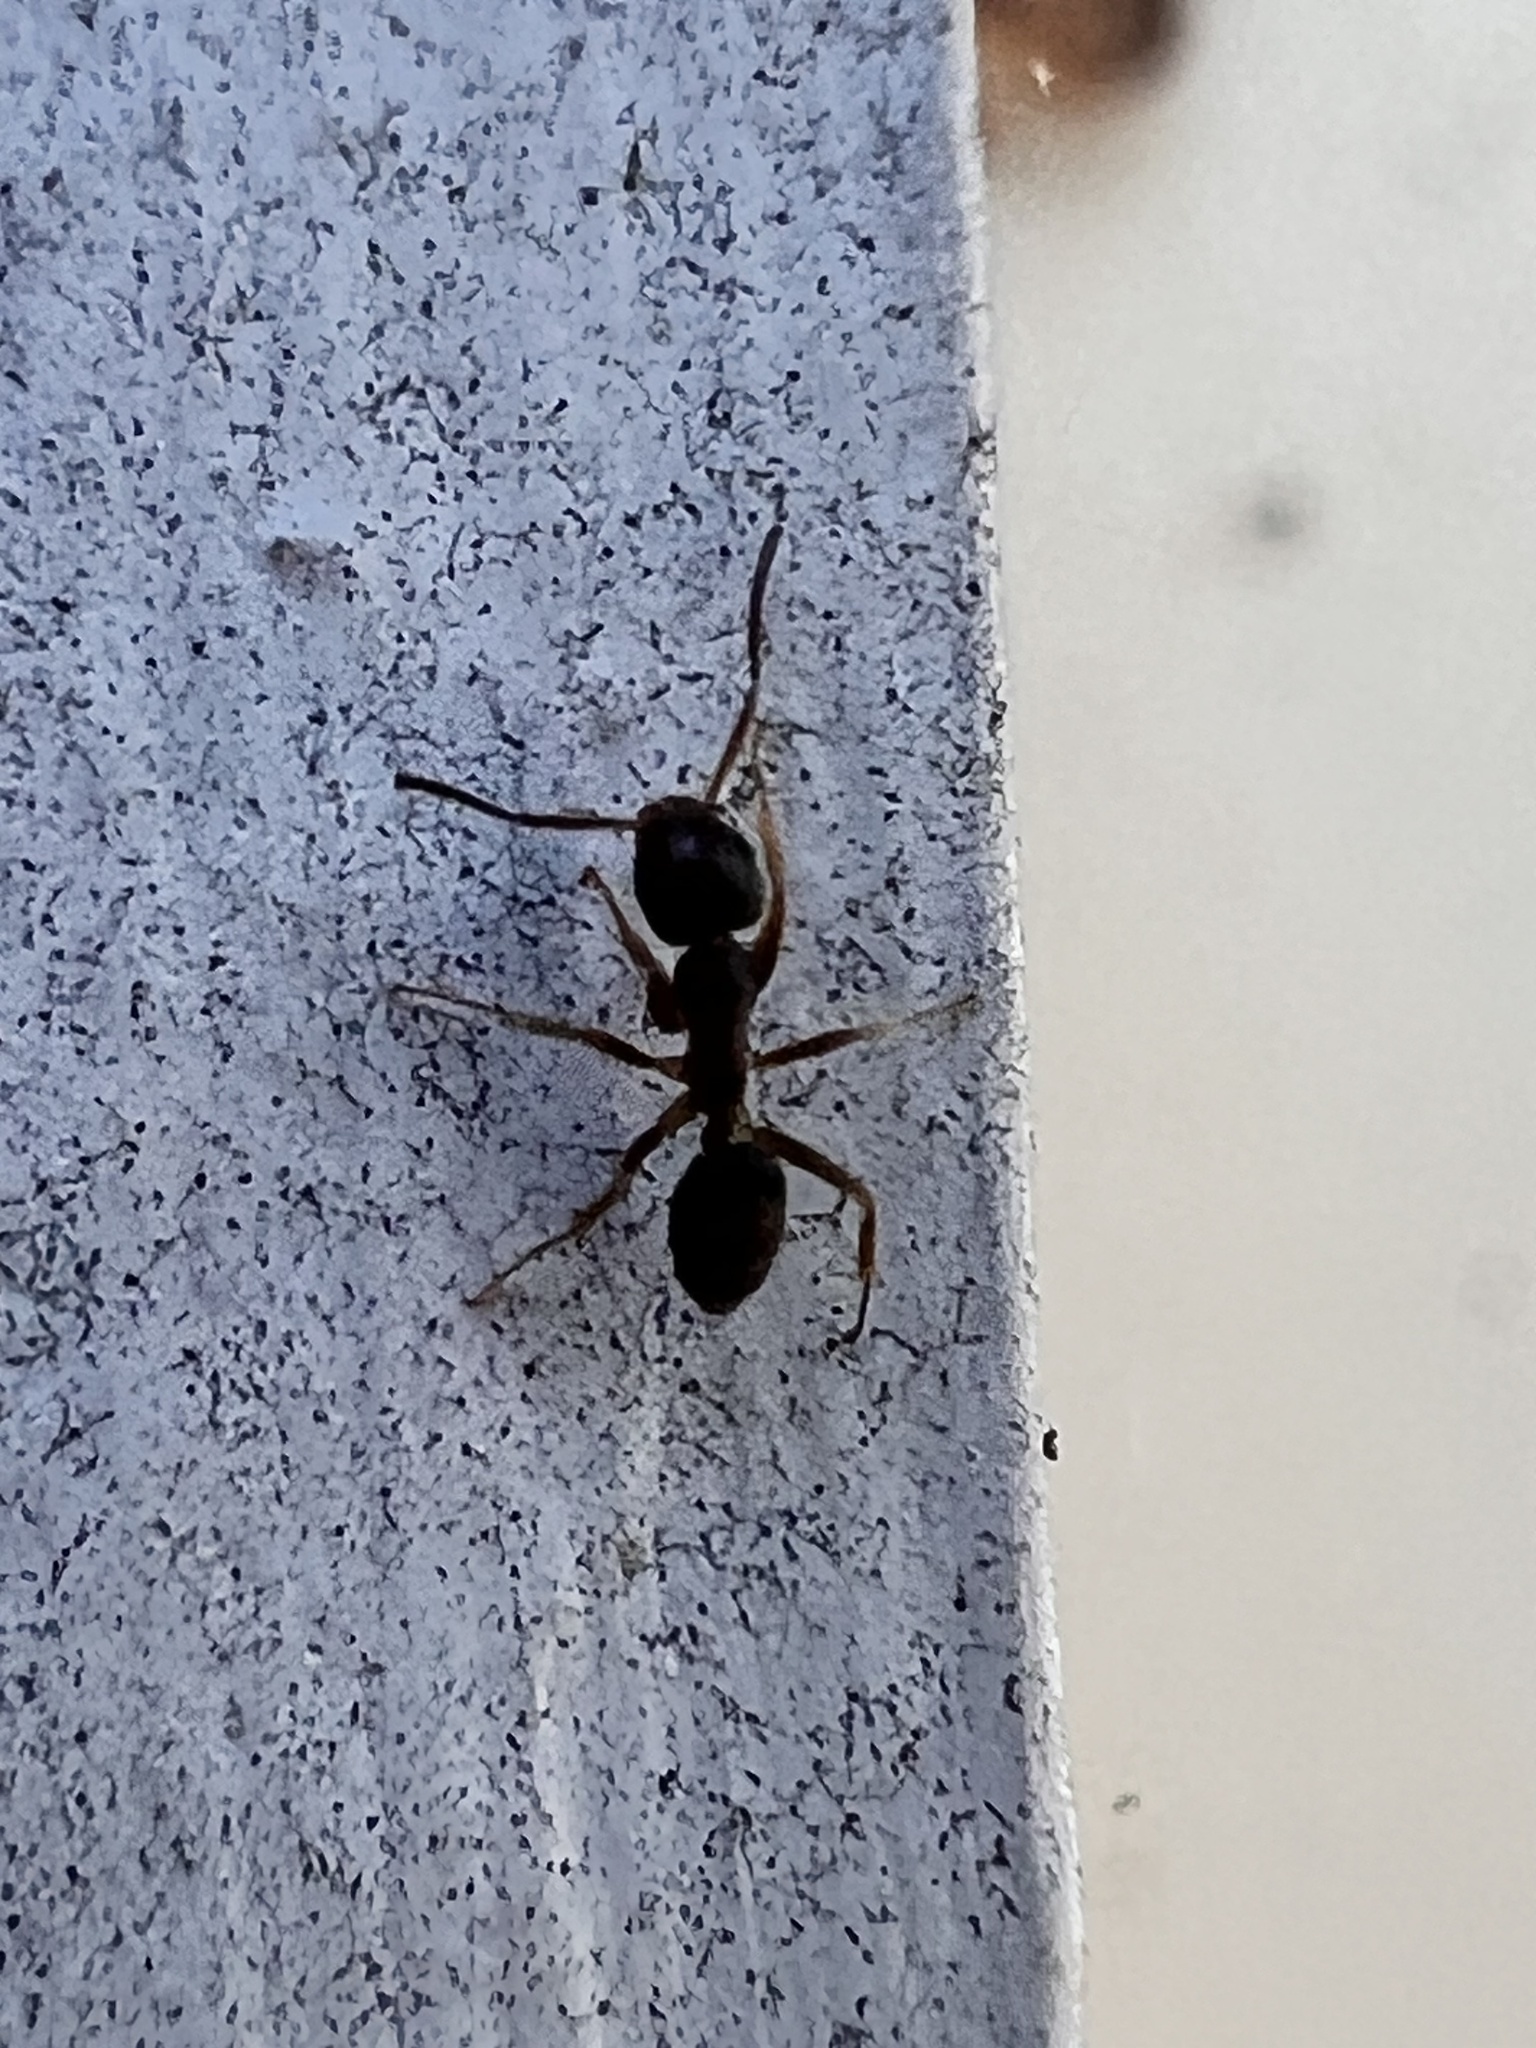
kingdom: Animalia
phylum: Arthropoda
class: Insecta
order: Hymenoptera
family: Formicidae
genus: Tapinoma
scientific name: Tapinoma sessile
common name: Odorous house ant
